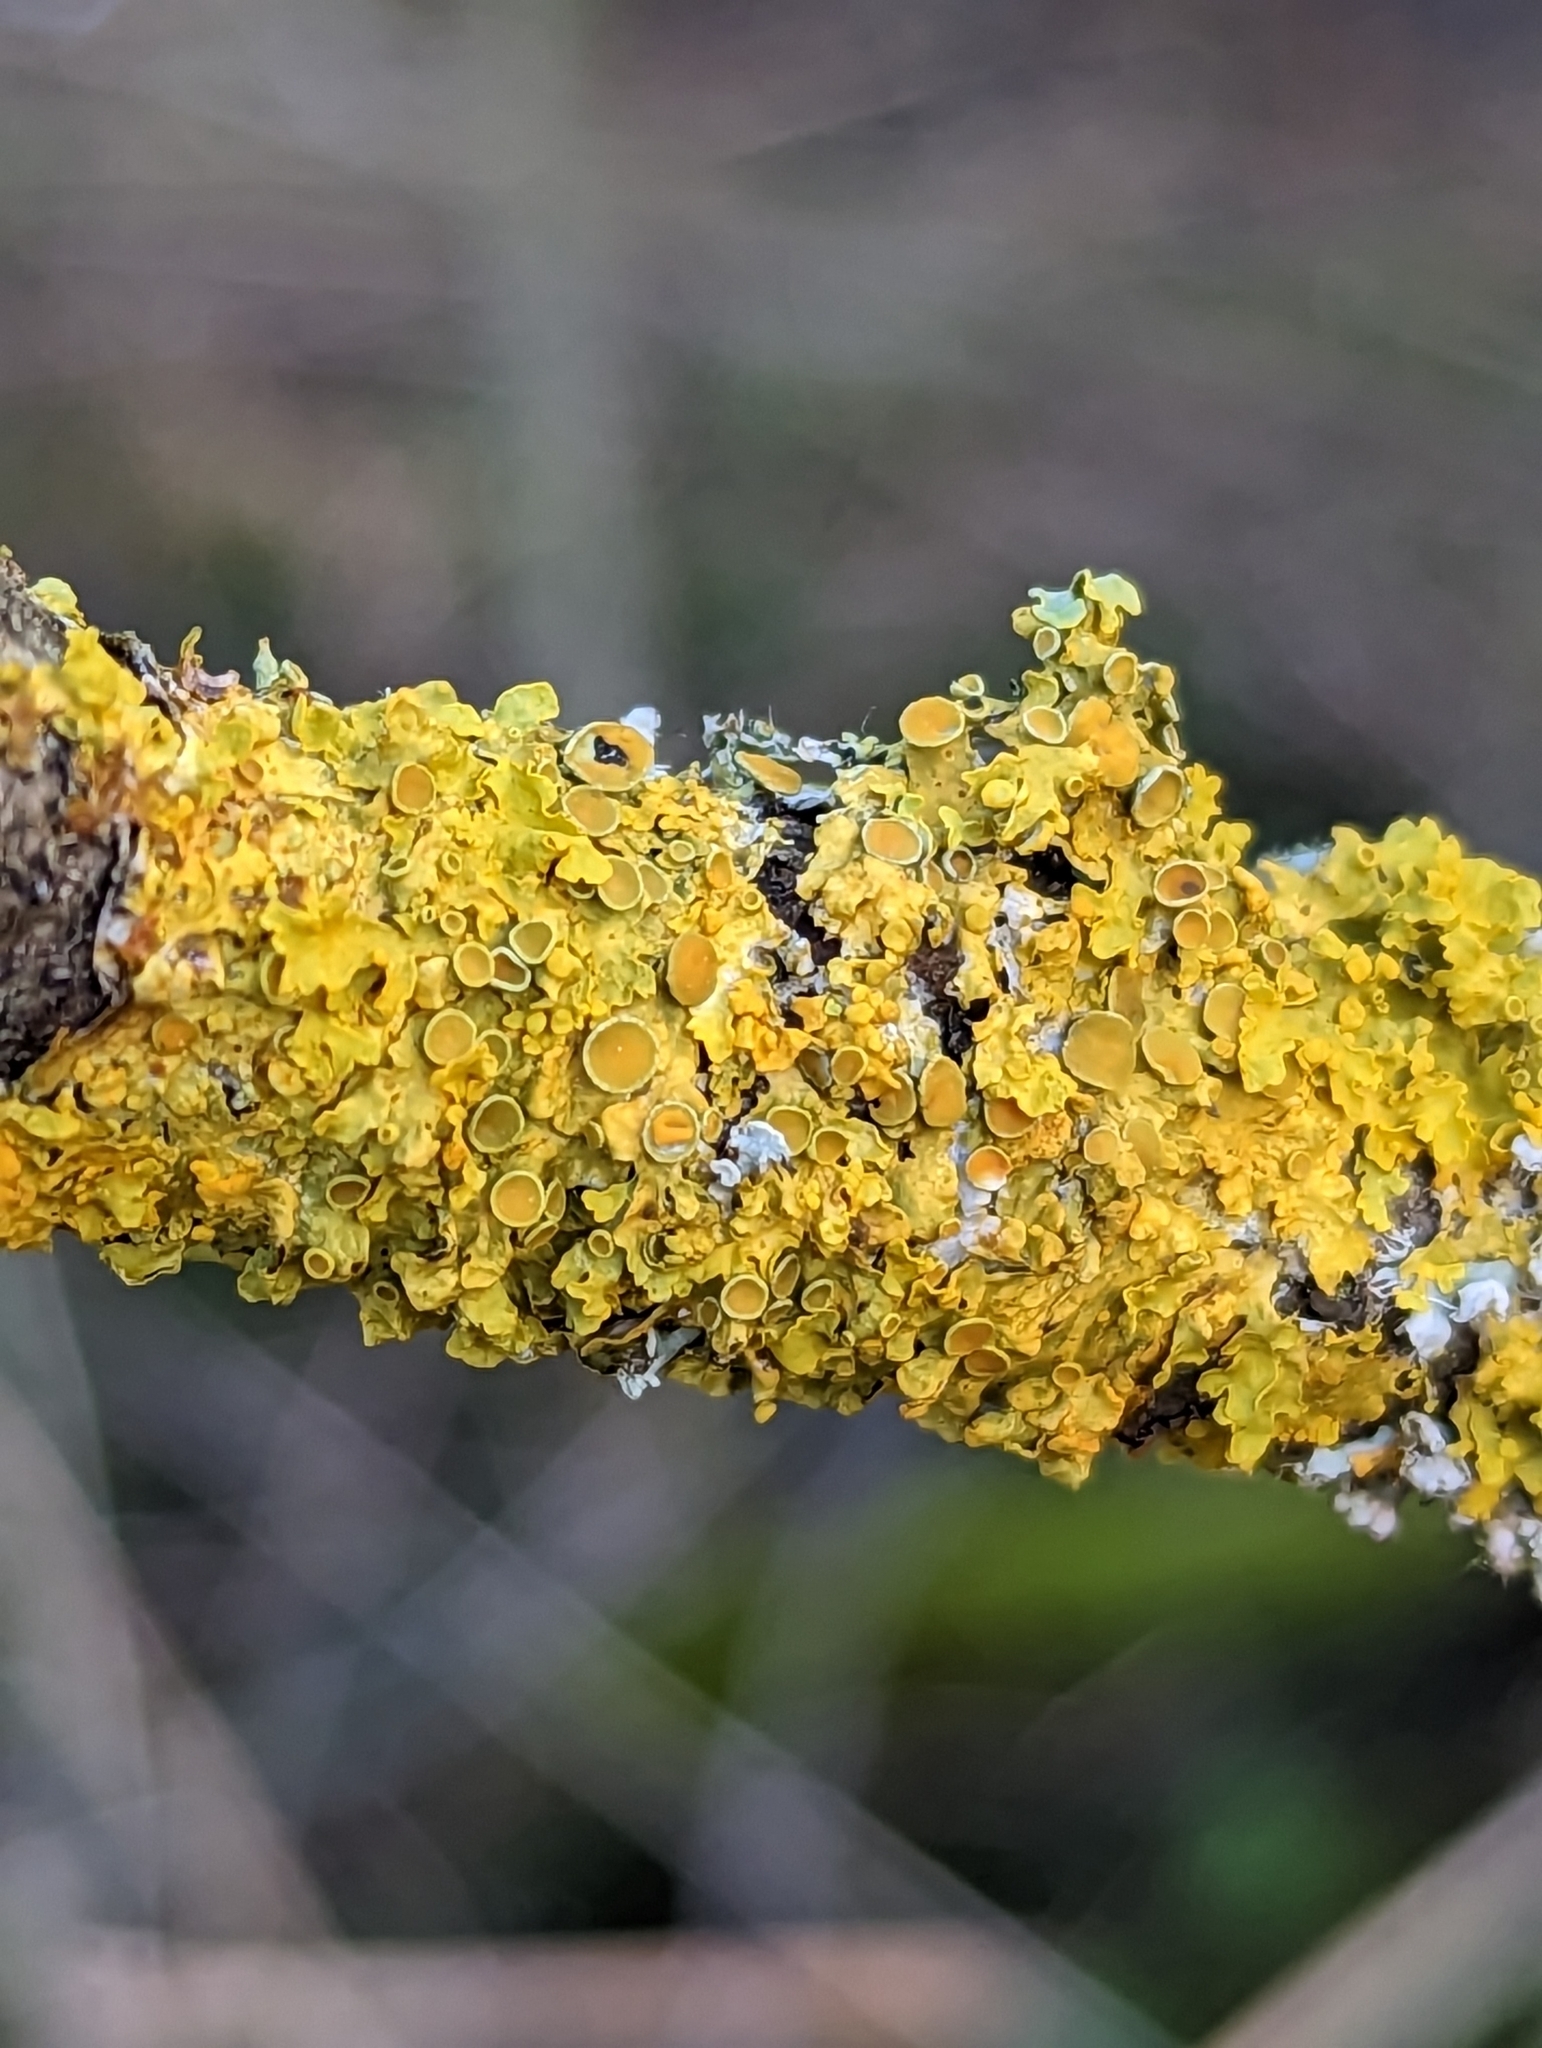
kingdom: Fungi
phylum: Ascomycota
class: Lecanoromycetes
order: Teloschistales
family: Teloschistaceae
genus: Xanthoria
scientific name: Xanthoria parietina
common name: Common orange lichen
